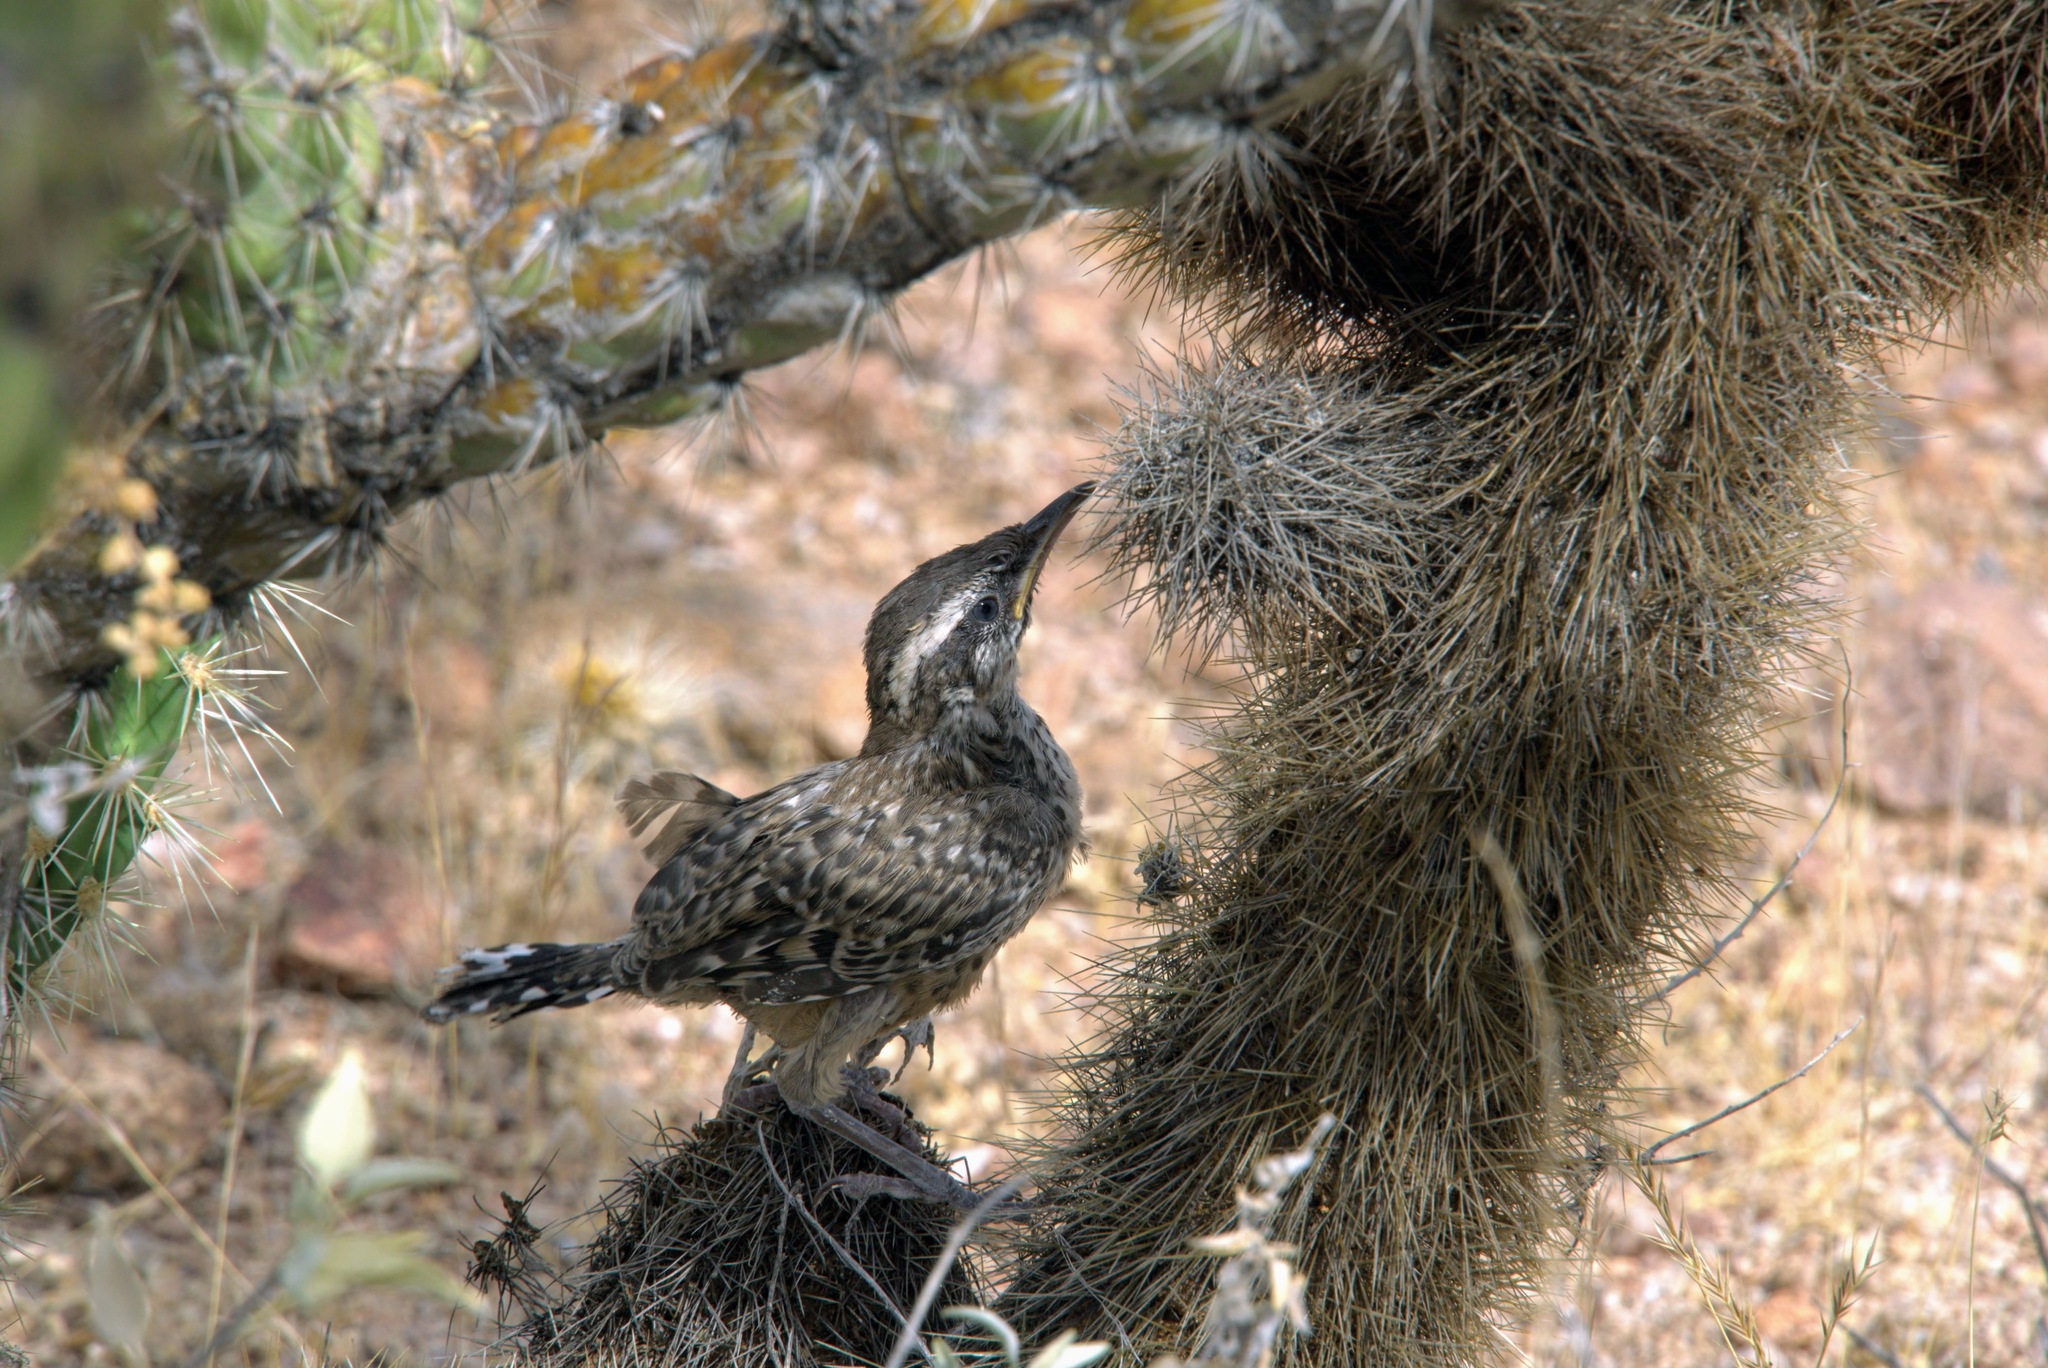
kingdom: Animalia
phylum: Chordata
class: Aves
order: Passeriformes
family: Troglodytidae
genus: Campylorhynchus
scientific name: Campylorhynchus brunneicapillus
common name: Cactus wren
